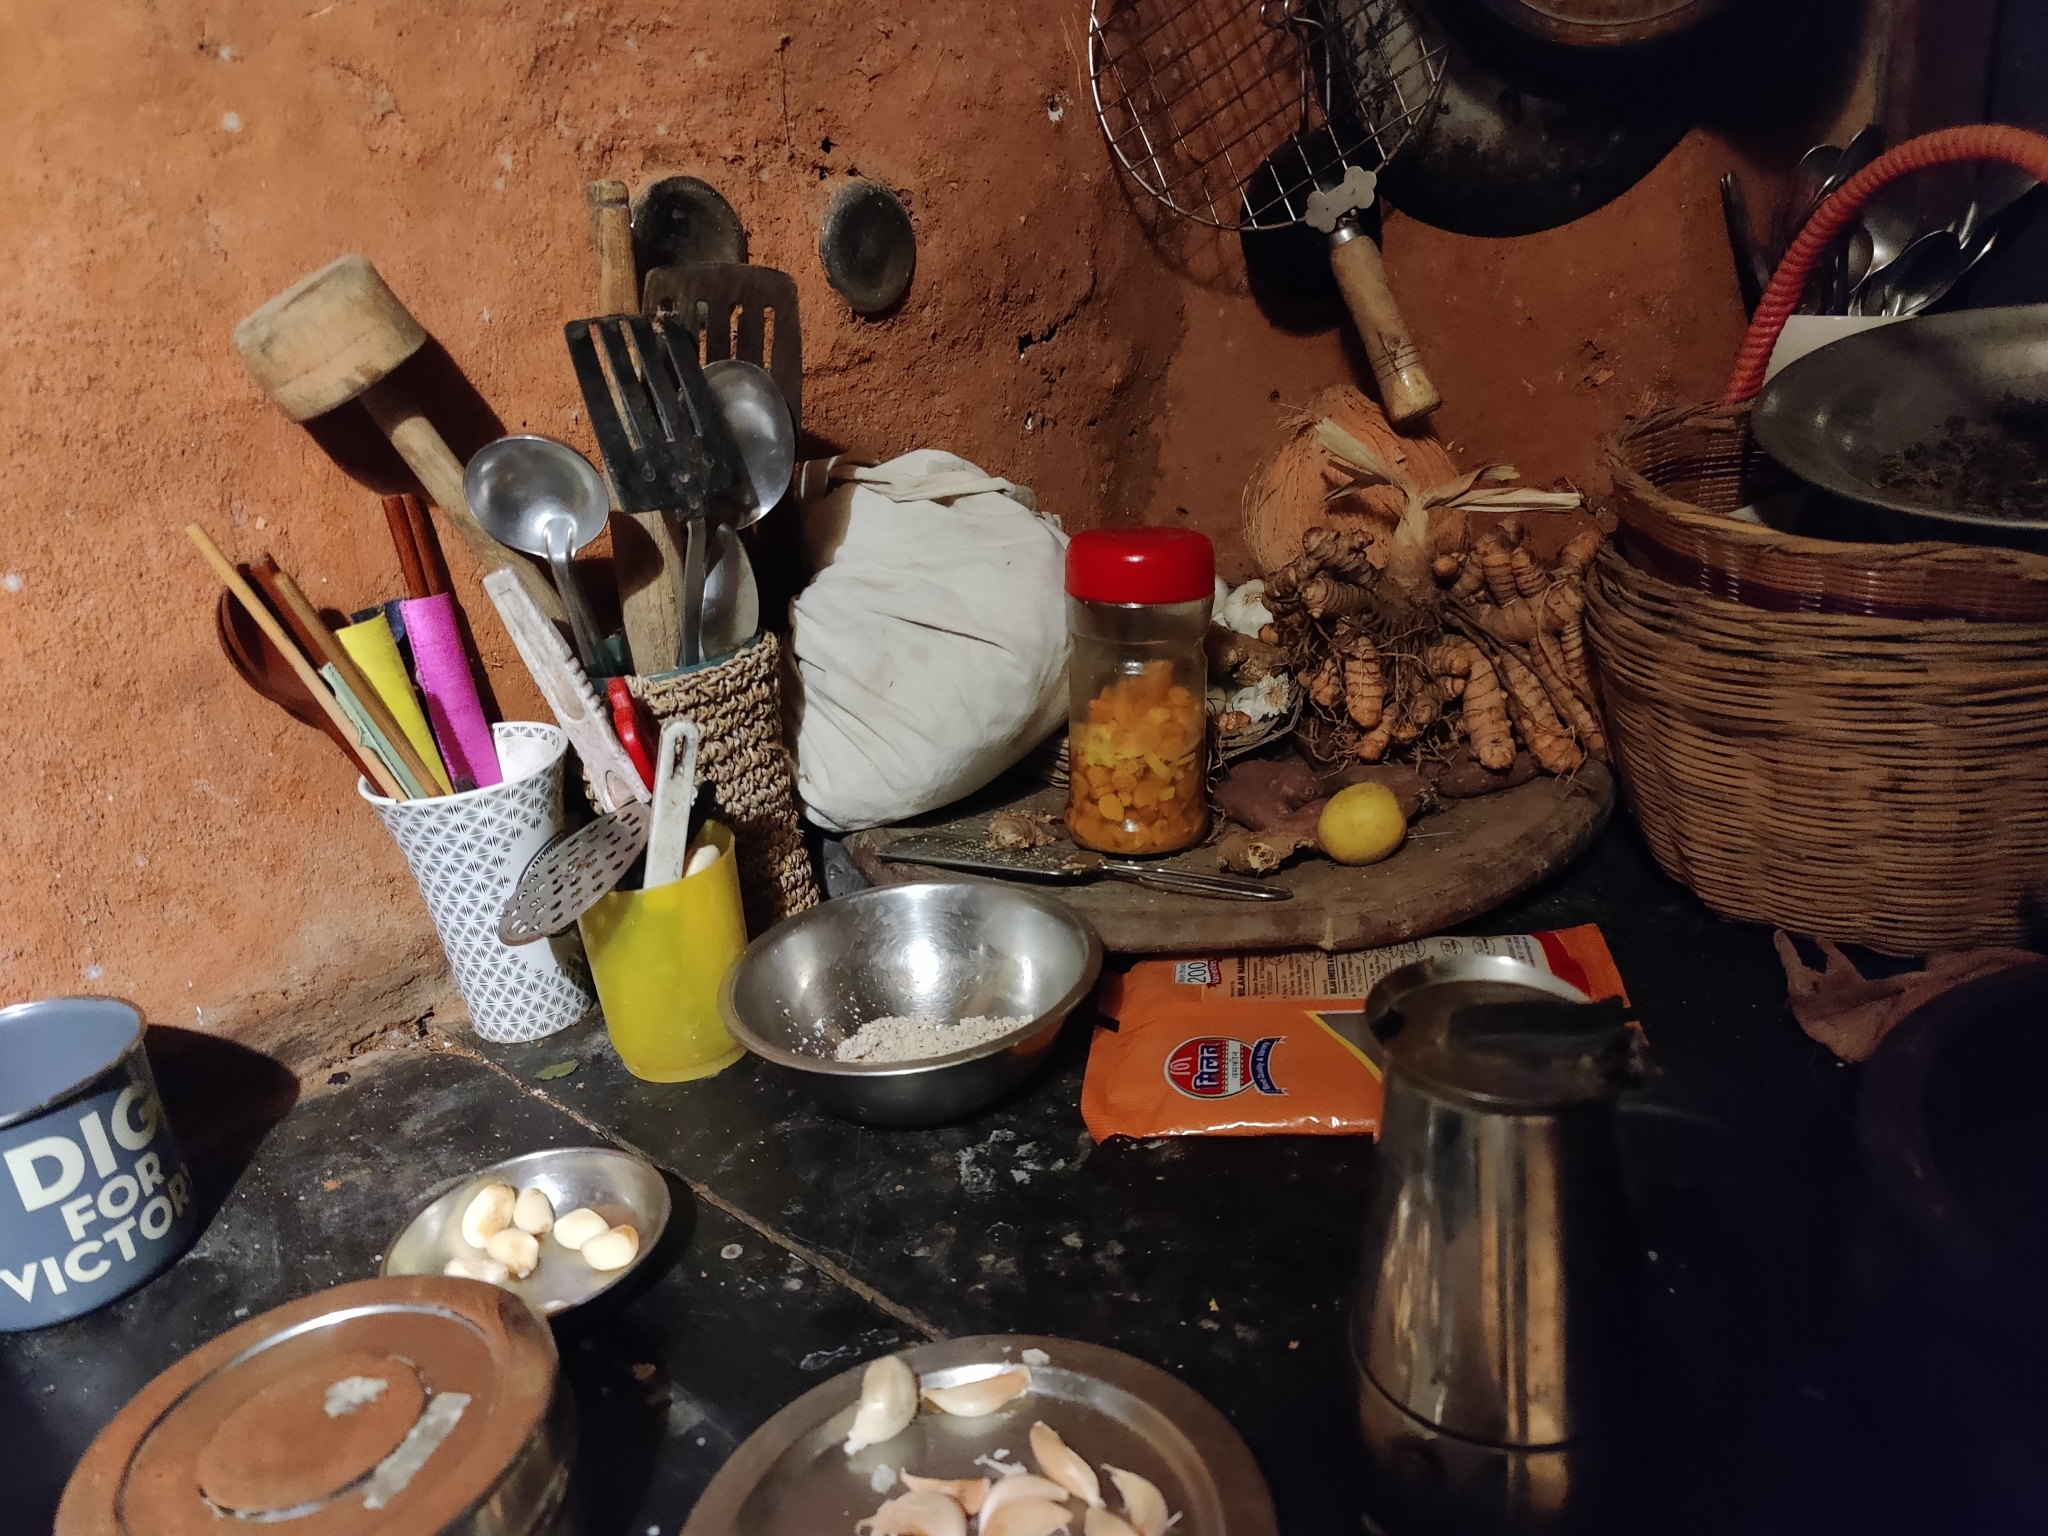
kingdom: Animalia
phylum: Chordata
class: Mammalia
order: Soricomorpha
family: Soricidae
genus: Suncus
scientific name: Suncus murinus
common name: Asian house shrew
